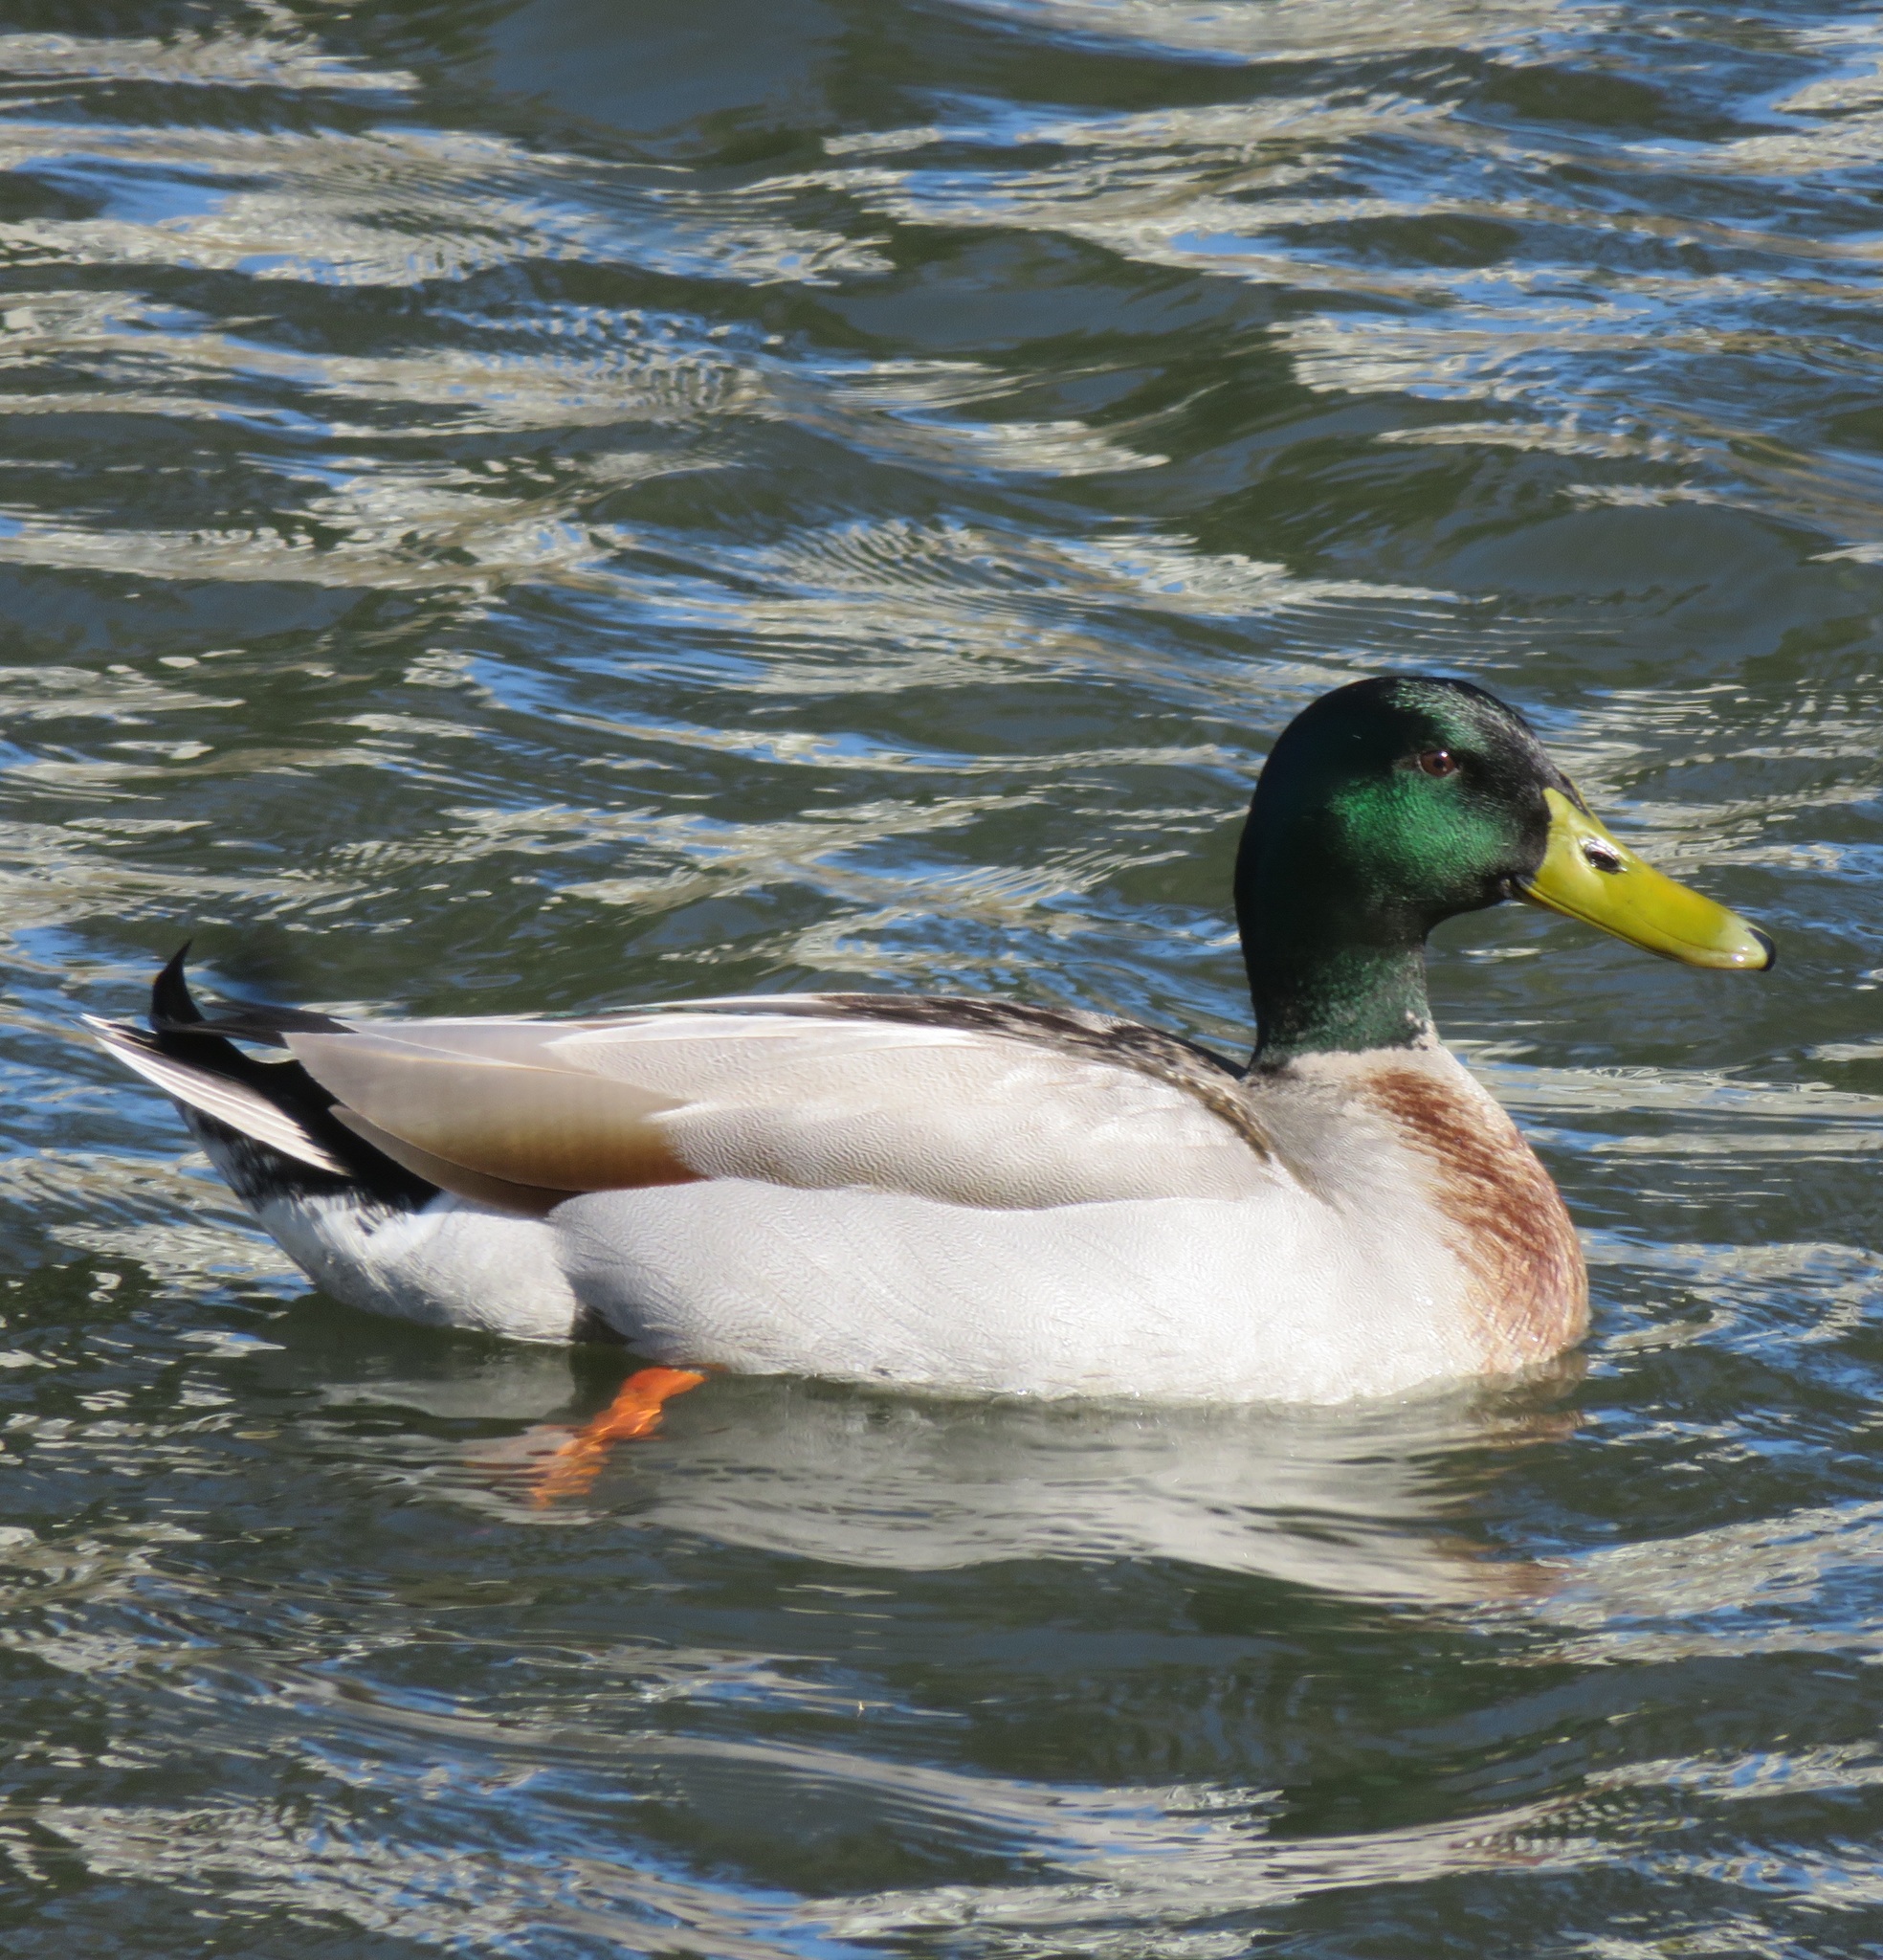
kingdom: Animalia
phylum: Chordata
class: Aves
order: Anseriformes
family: Anatidae
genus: Anas
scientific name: Anas platyrhynchos
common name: Mallard
